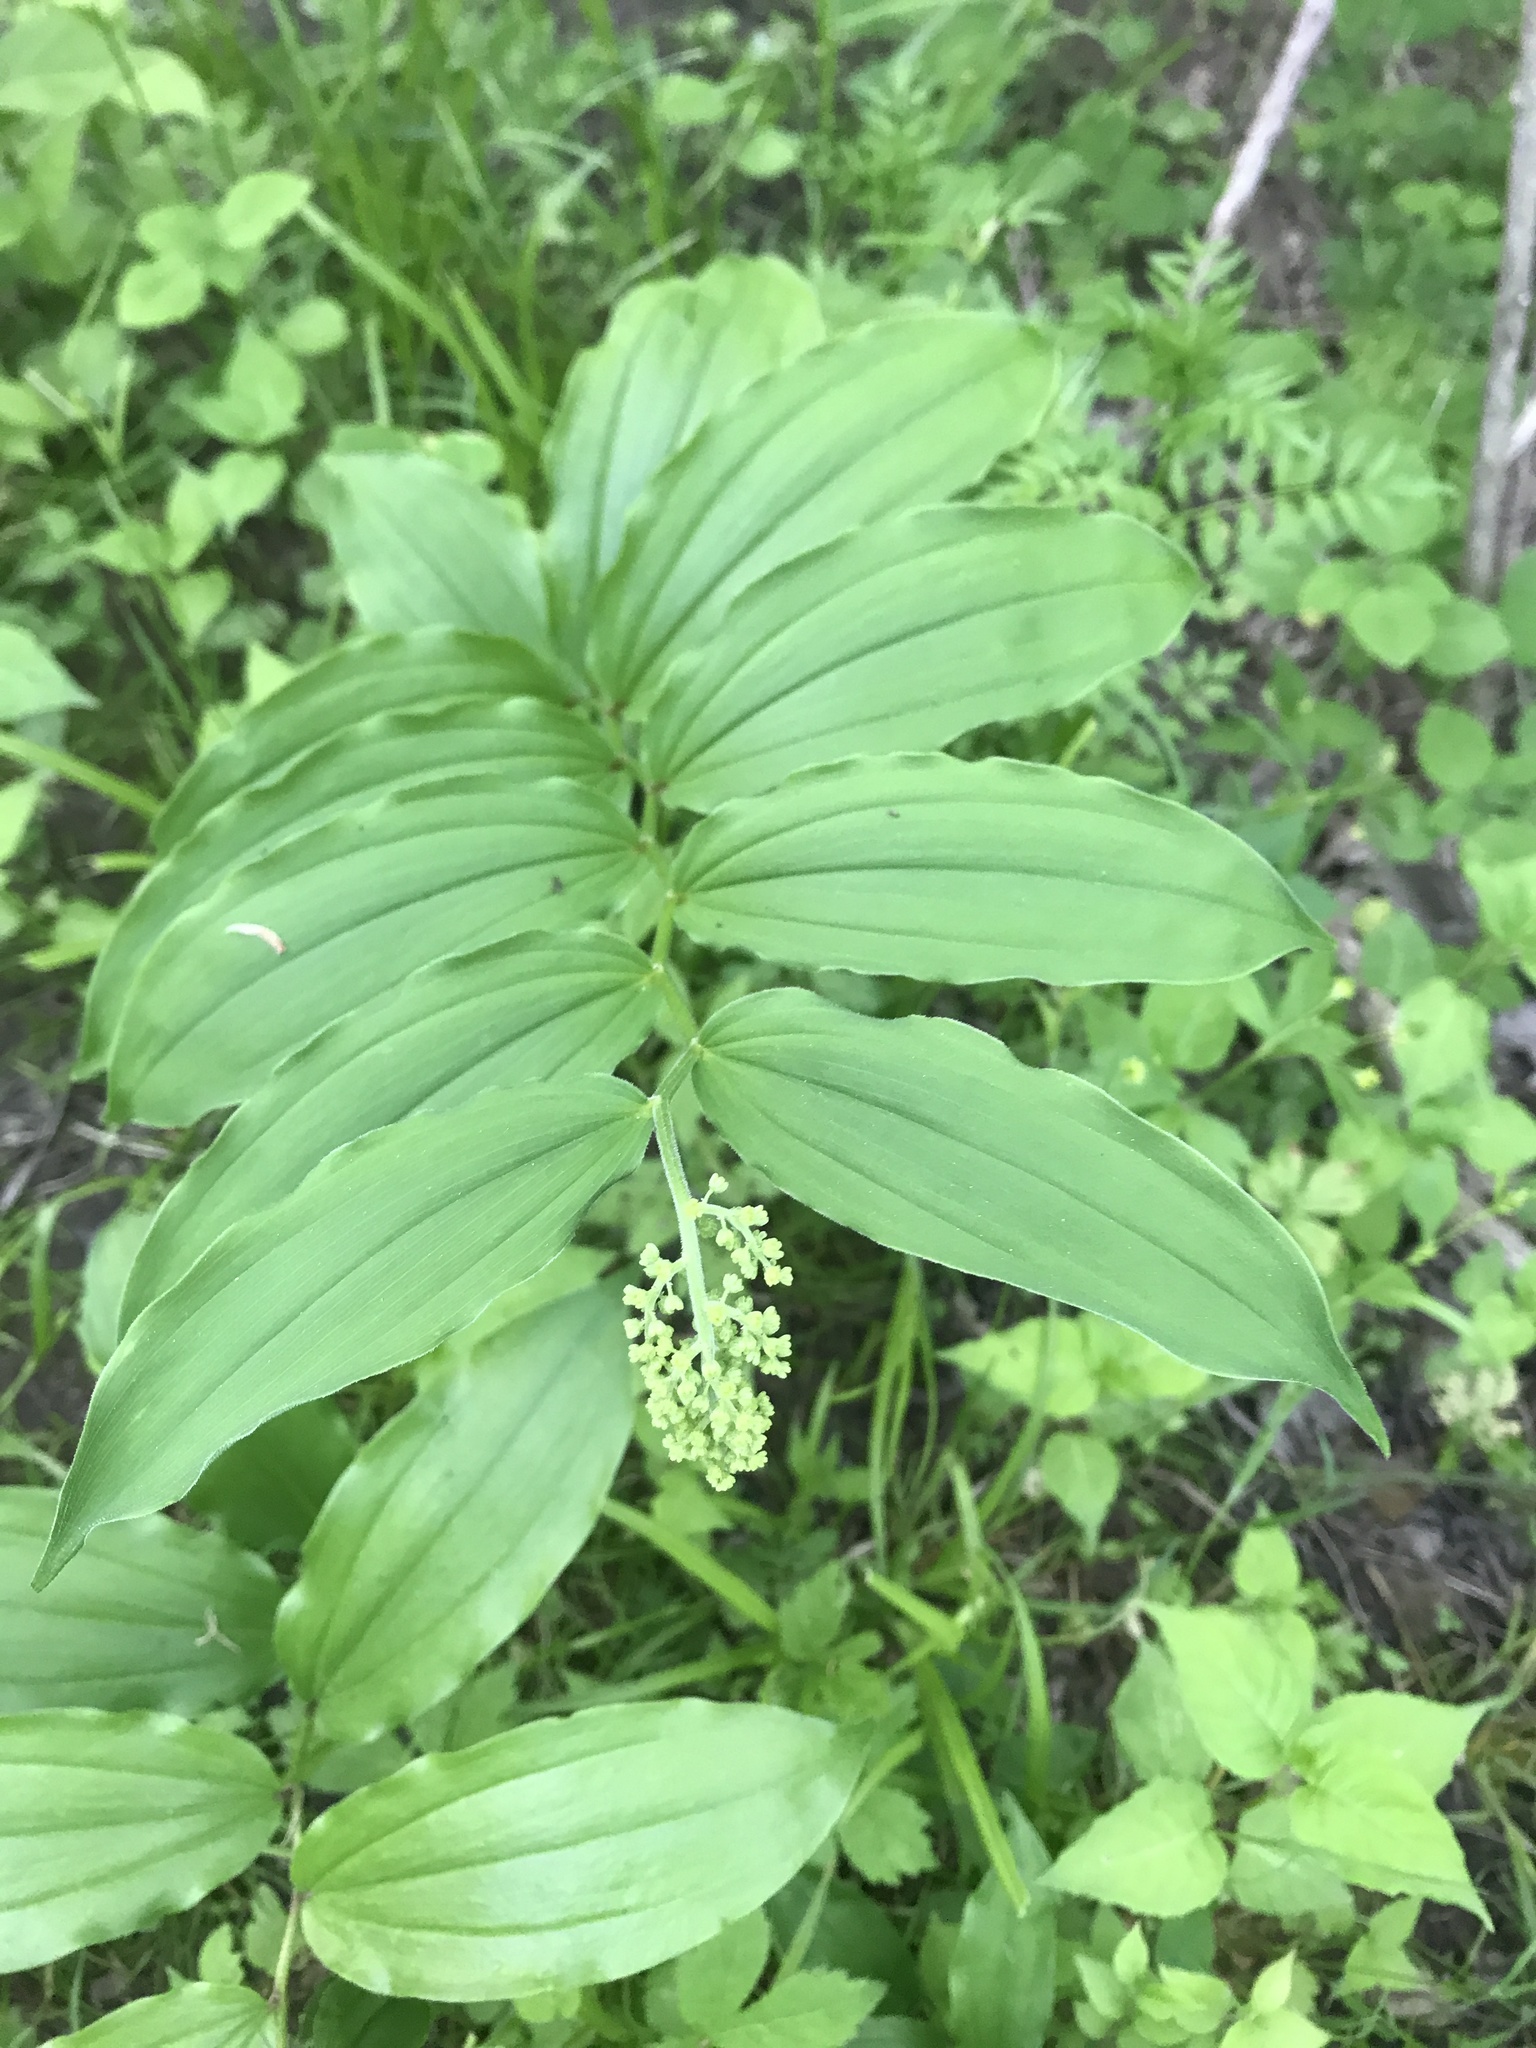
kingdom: Plantae
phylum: Tracheophyta
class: Liliopsida
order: Asparagales
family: Asparagaceae
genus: Maianthemum
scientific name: Maianthemum racemosum
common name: False spikenard
